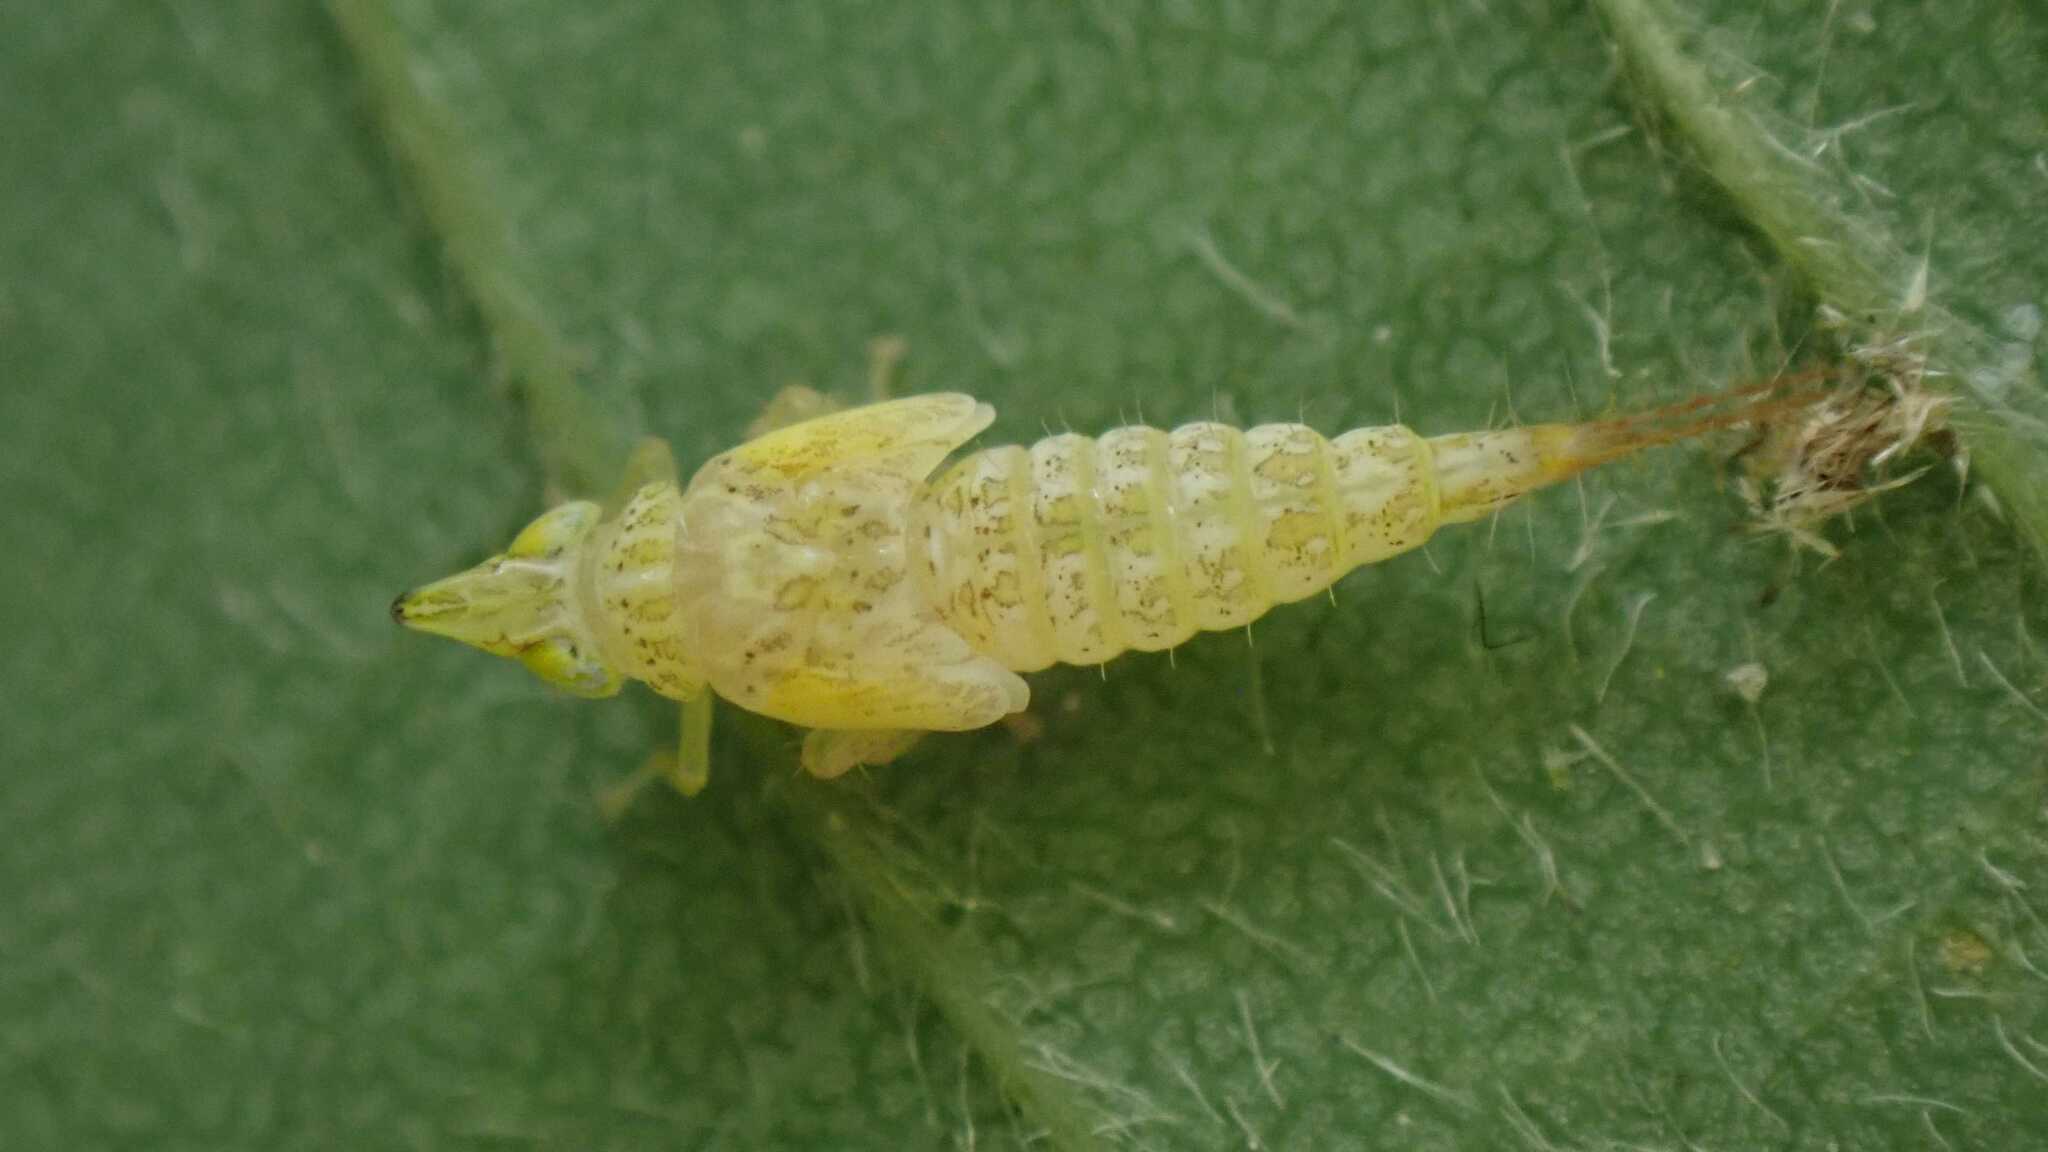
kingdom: Animalia
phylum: Arthropoda
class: Insecta
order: Hemiptera
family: Cicadellidae
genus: Japananus
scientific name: Japananus hyalinus
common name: The japanese maple leafhopper
